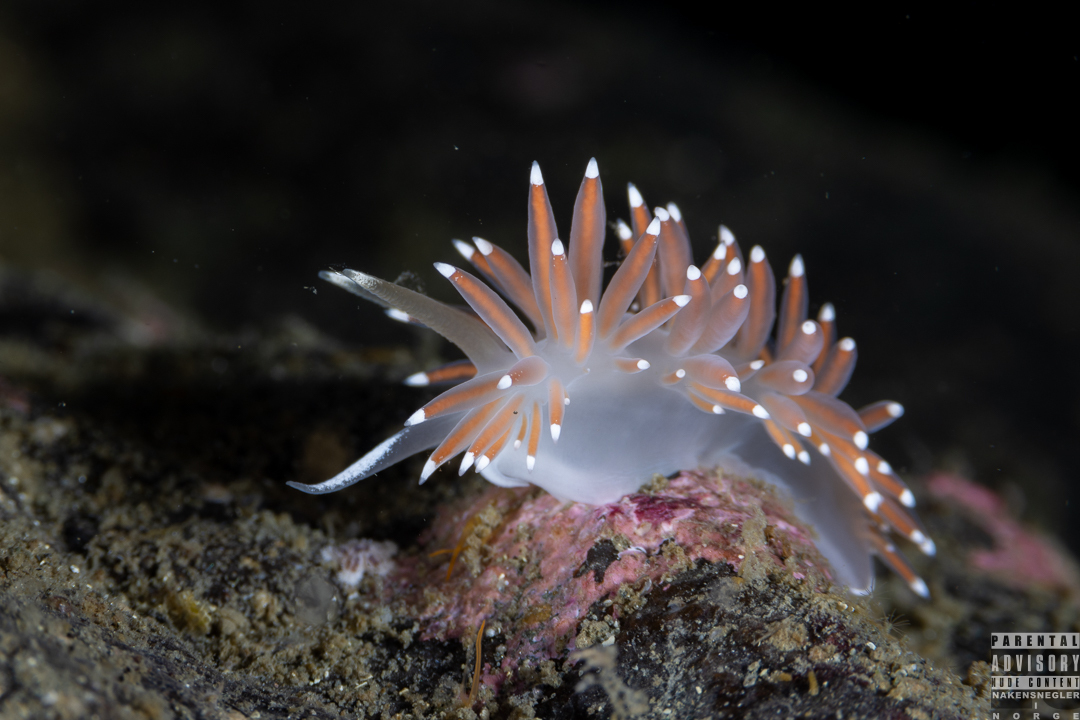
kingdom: Animalia
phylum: Mollusca
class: Gastropoda
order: Nudibranchia
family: Coryphellidae
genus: Coryphella
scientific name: Coryphella browni
